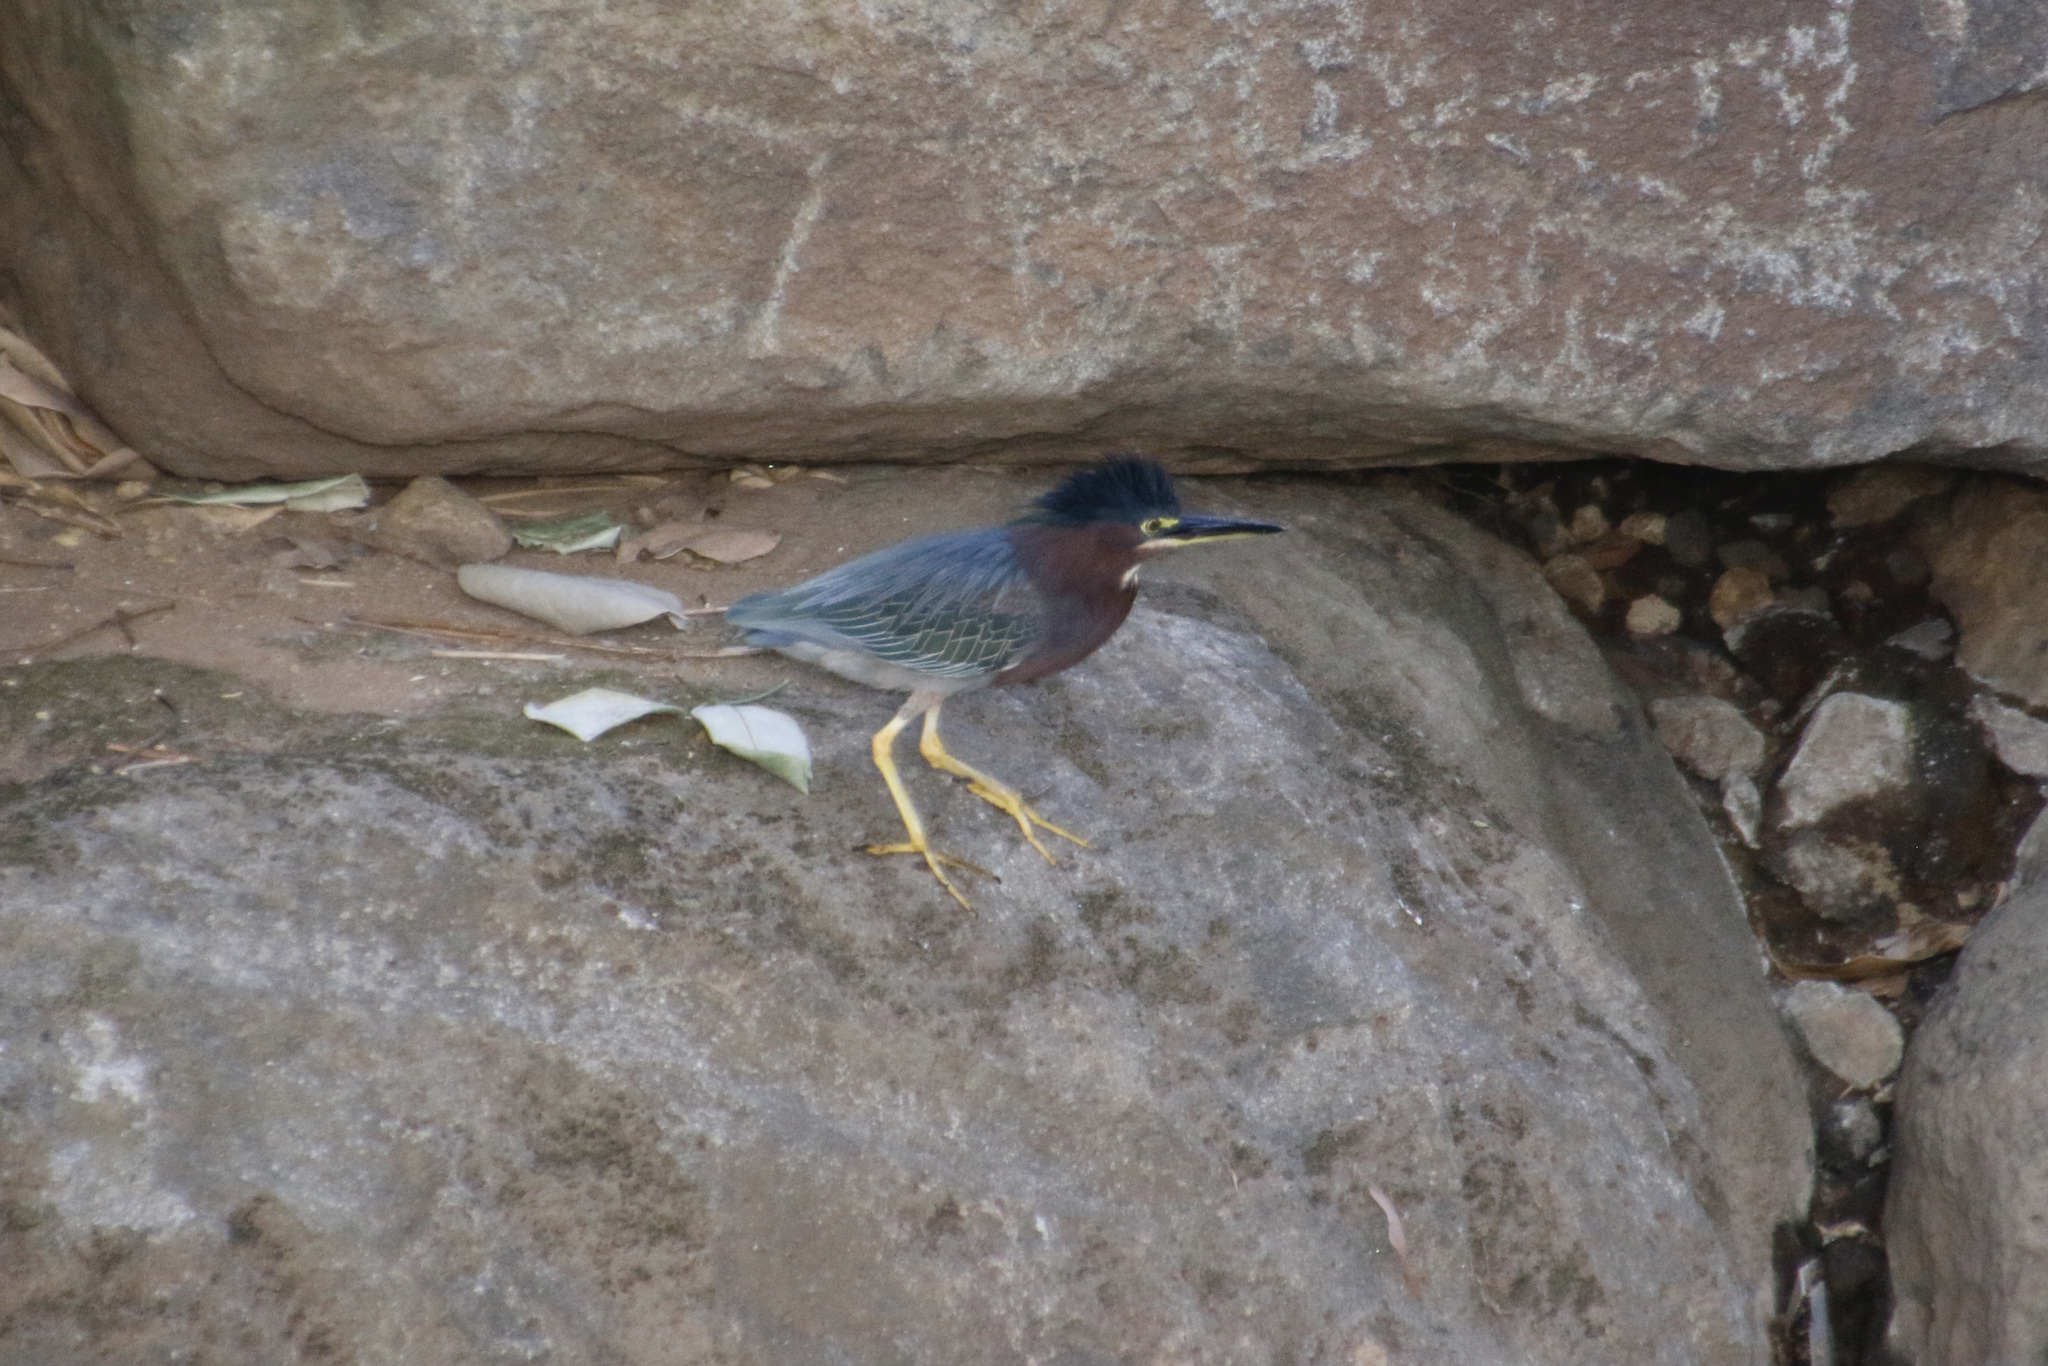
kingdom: Animalia
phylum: Chordata
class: Aves
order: Pelecaniformes
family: Ardeidae
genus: Butorides
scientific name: Butorides virescens
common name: Green heron
